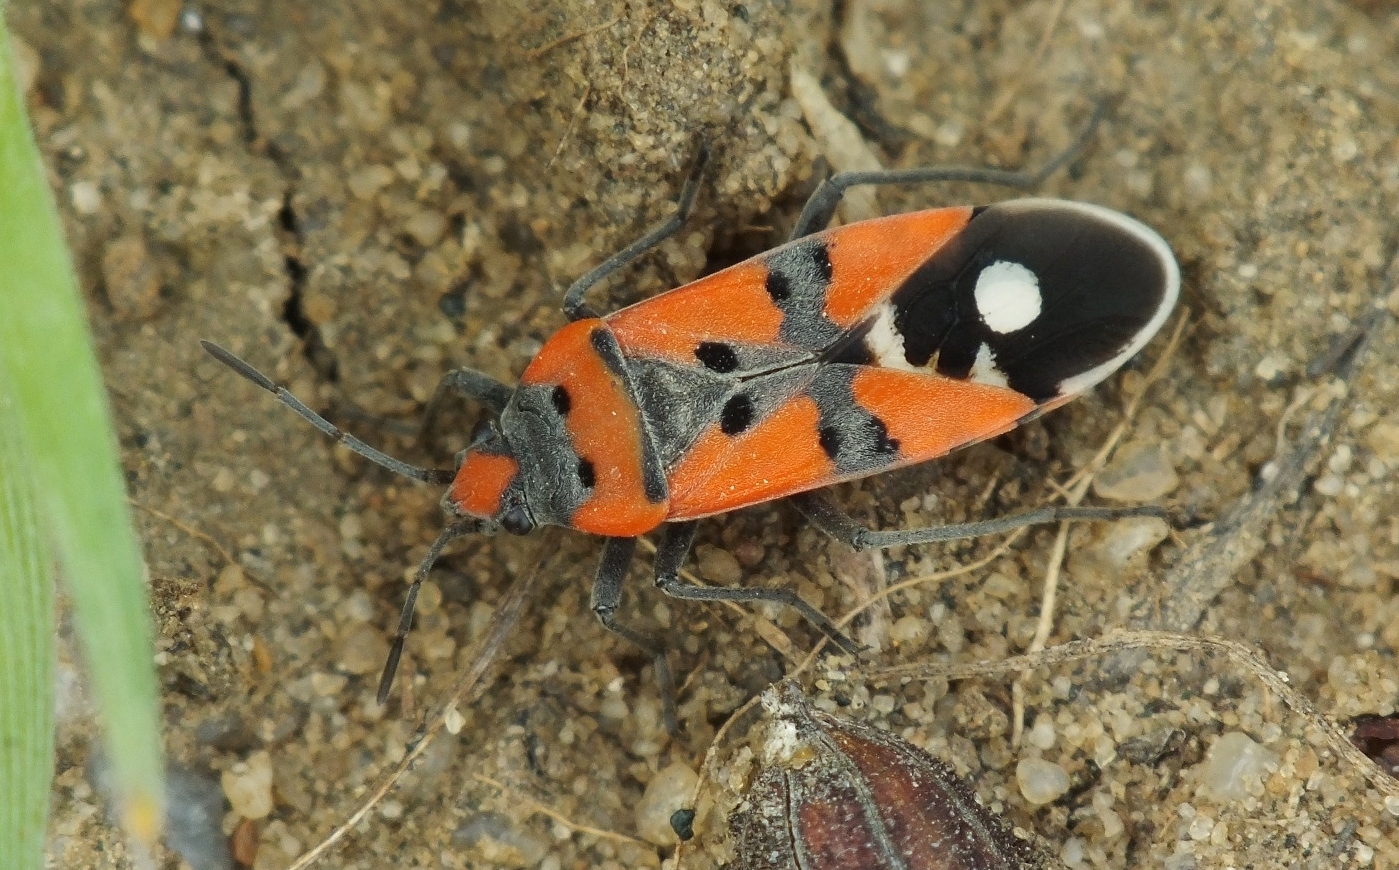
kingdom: Animalia
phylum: Arthropoda
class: Insecta
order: Hemiptera
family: Lygaeidae
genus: Lygaeus
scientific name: Lygaeus simulans
